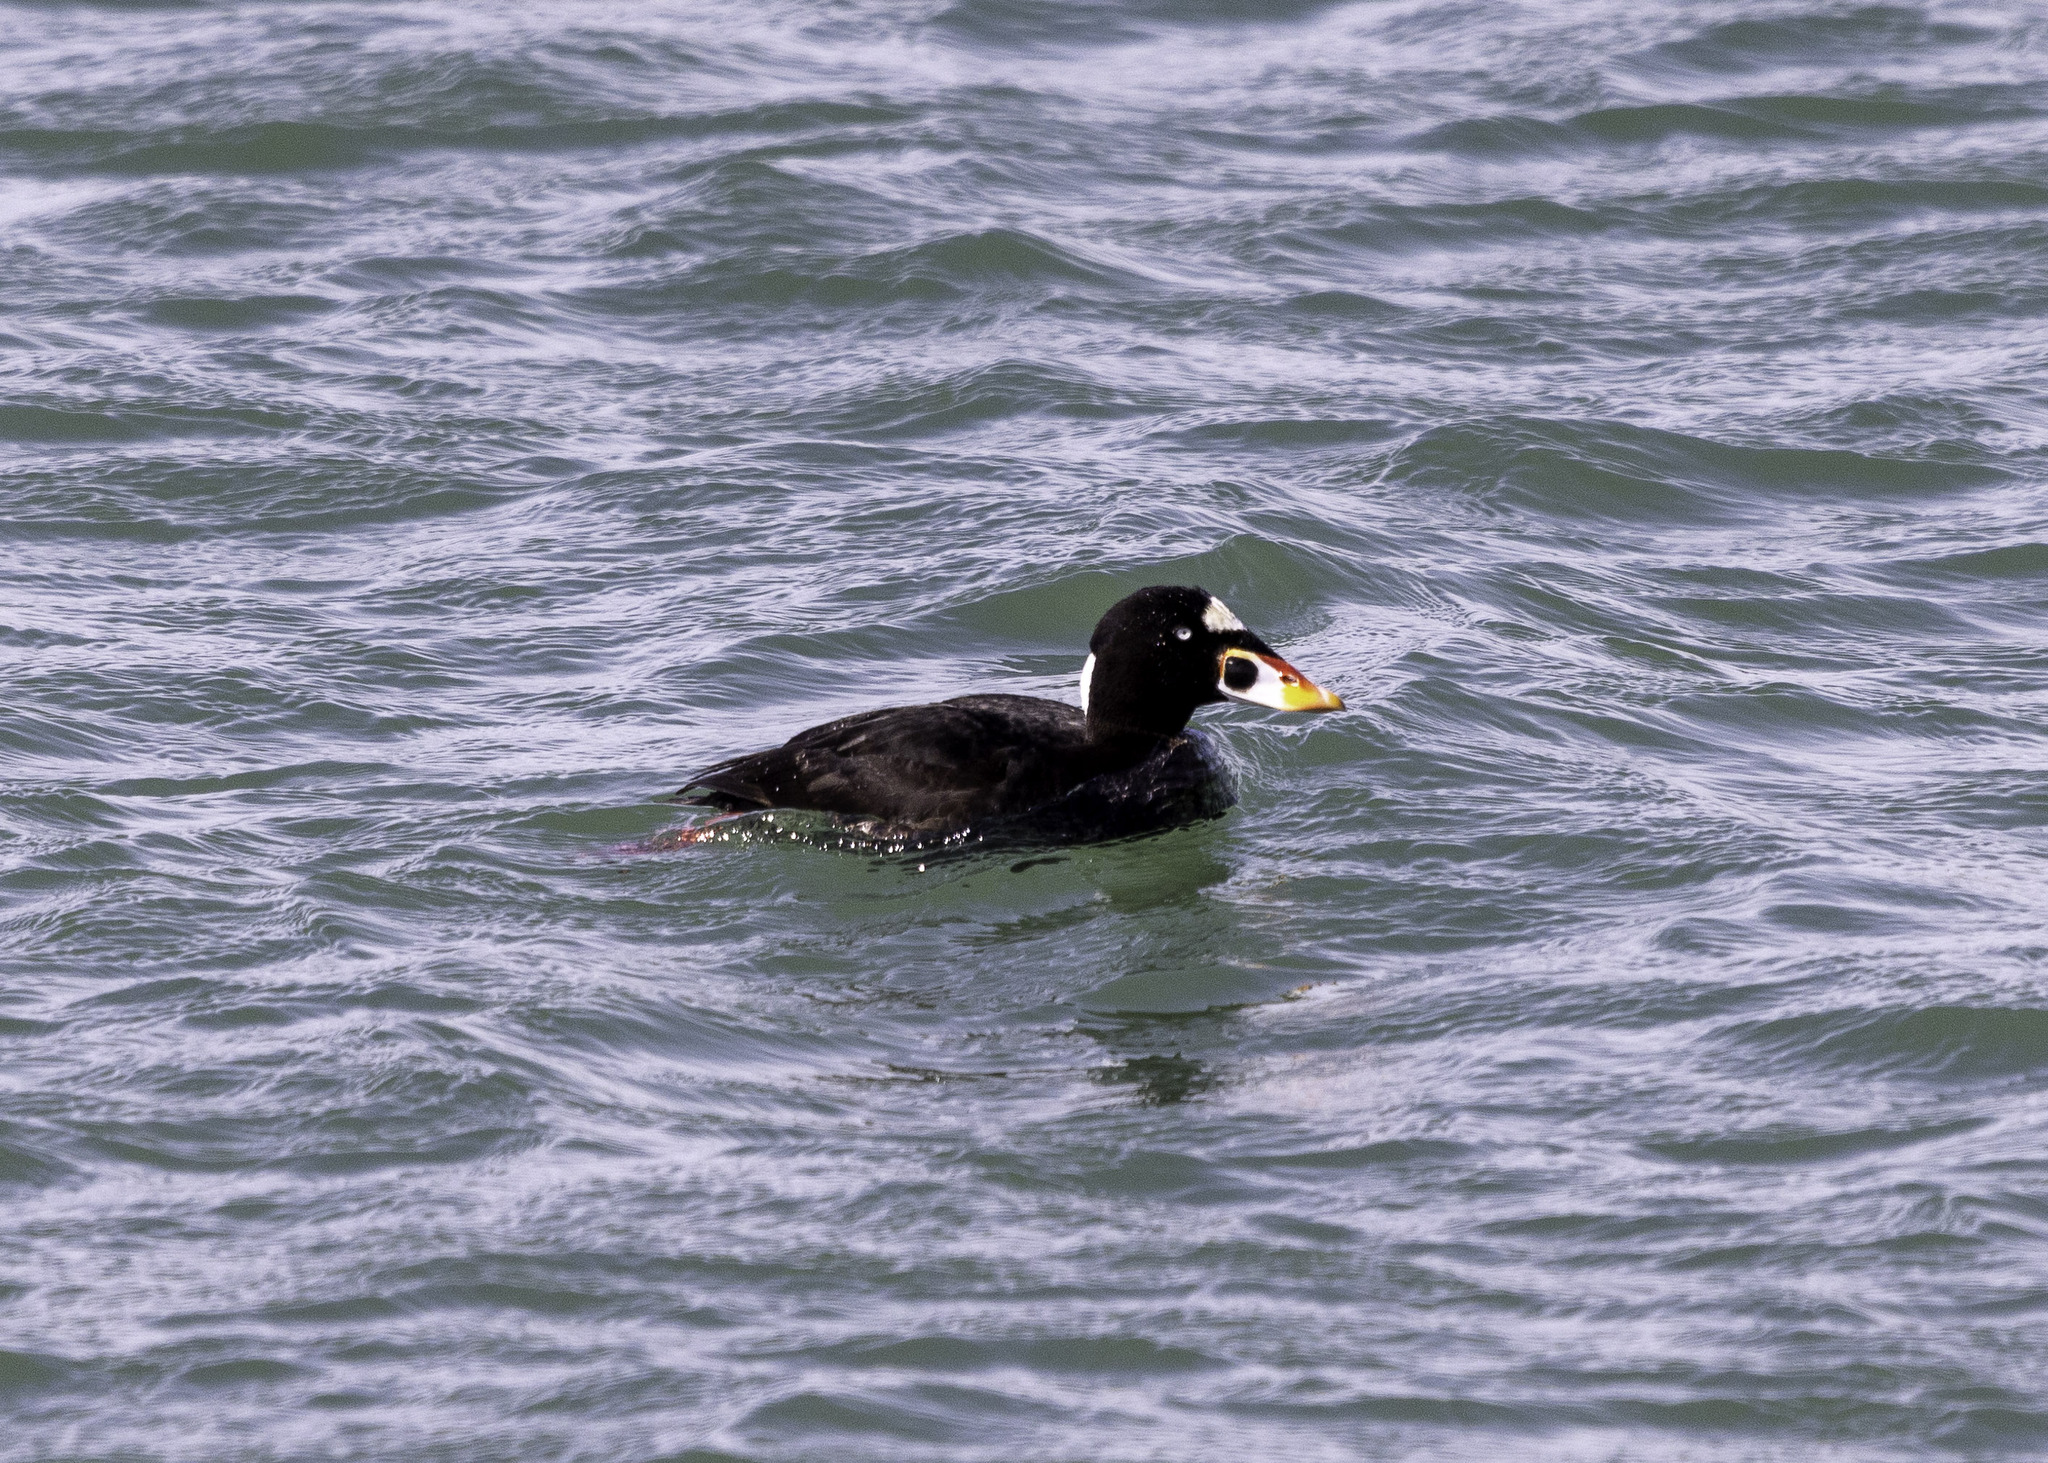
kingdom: Animalia
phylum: Chordata
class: Aves
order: Anseriformes
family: Anatidae
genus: Melanitta
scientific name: Melanitta perspicillata
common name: Surf scoter
